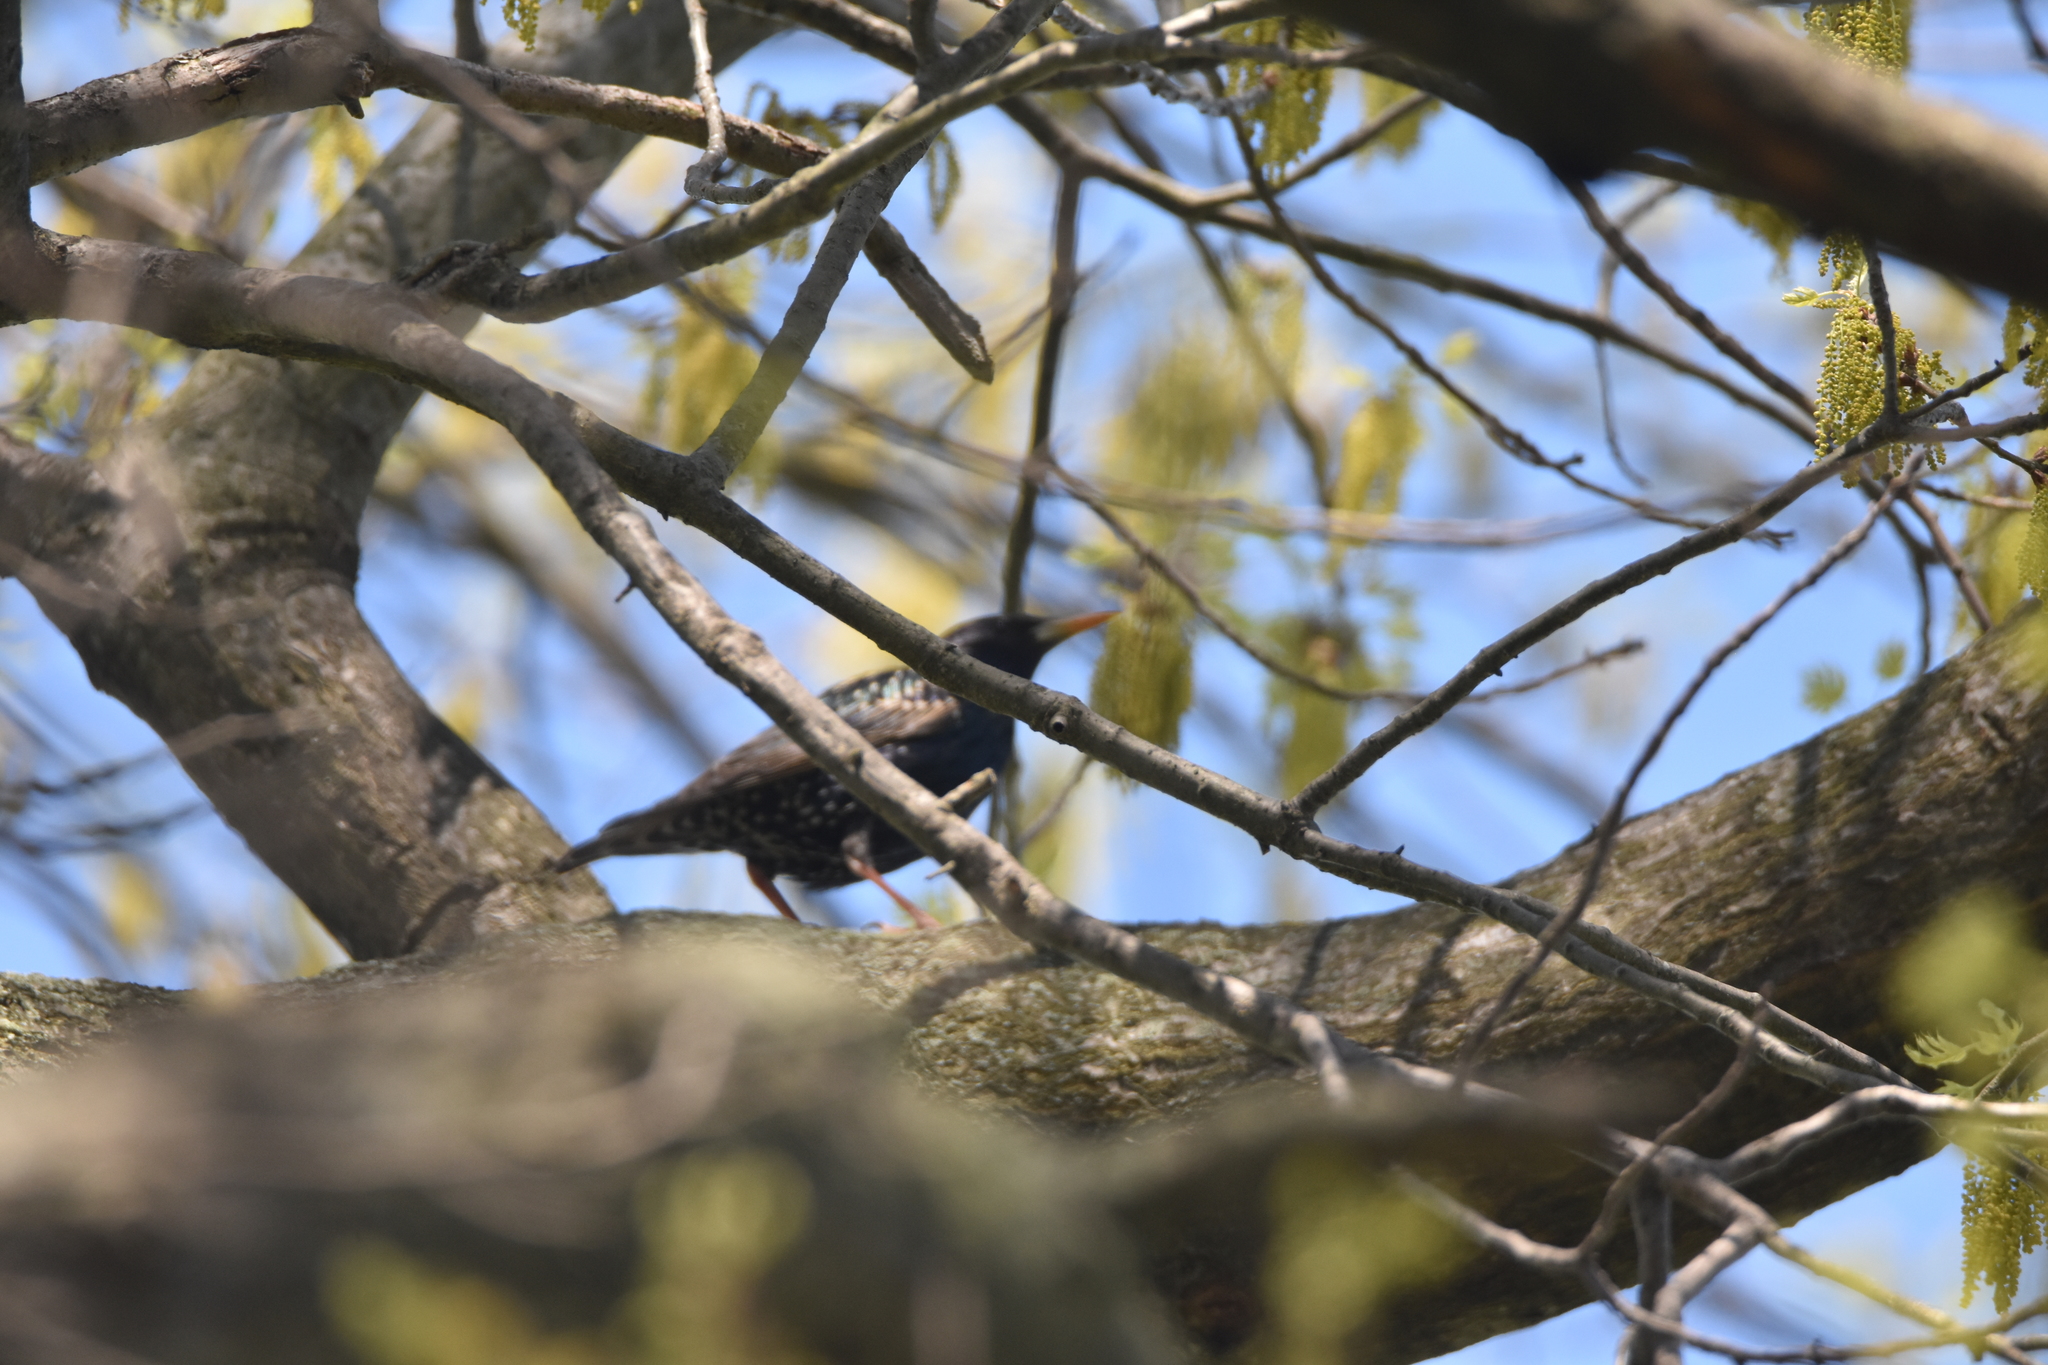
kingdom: Animalia
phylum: Chordata
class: Aves
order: Passeriformes
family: Sturnidae
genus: Sturnus
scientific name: Sturnus vulgaris
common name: Common starling
